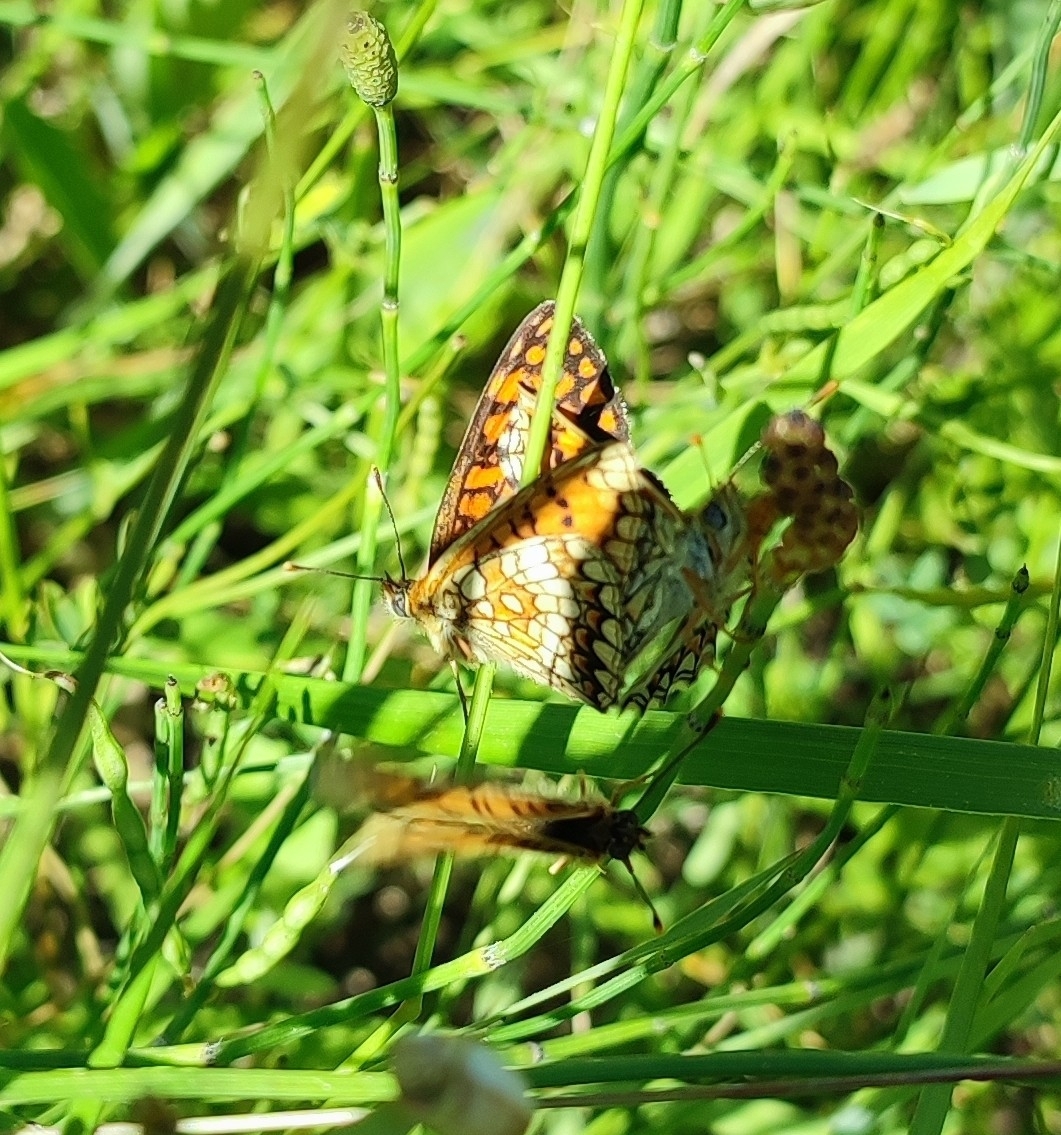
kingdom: Animalia
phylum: Arthropoda
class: Insecta
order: Lepidoptera
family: Nymphalidae
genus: Mellicta
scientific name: Mellicta athalia
